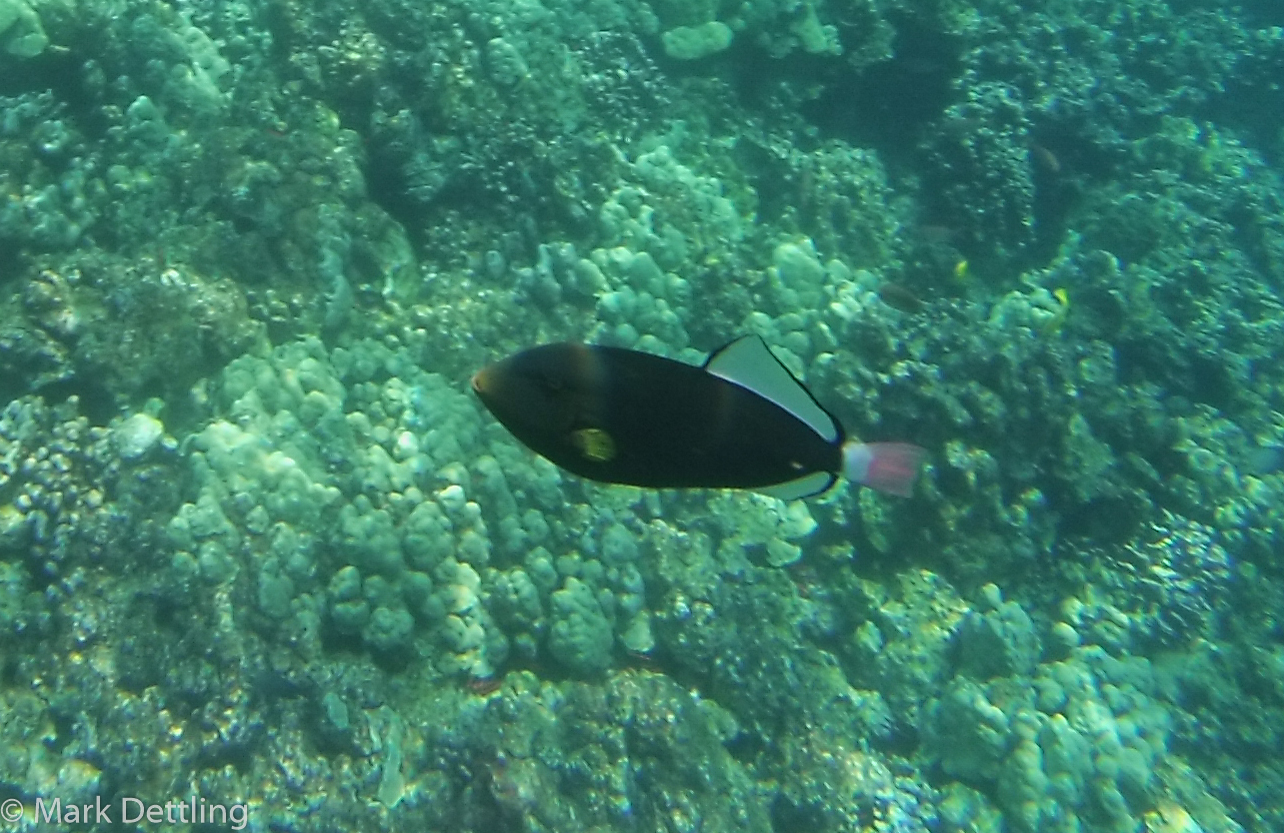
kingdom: Animalia
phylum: Chordata
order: Tetraodontiformes
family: Balistidae
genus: Melichthys
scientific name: Melichthys vidua
